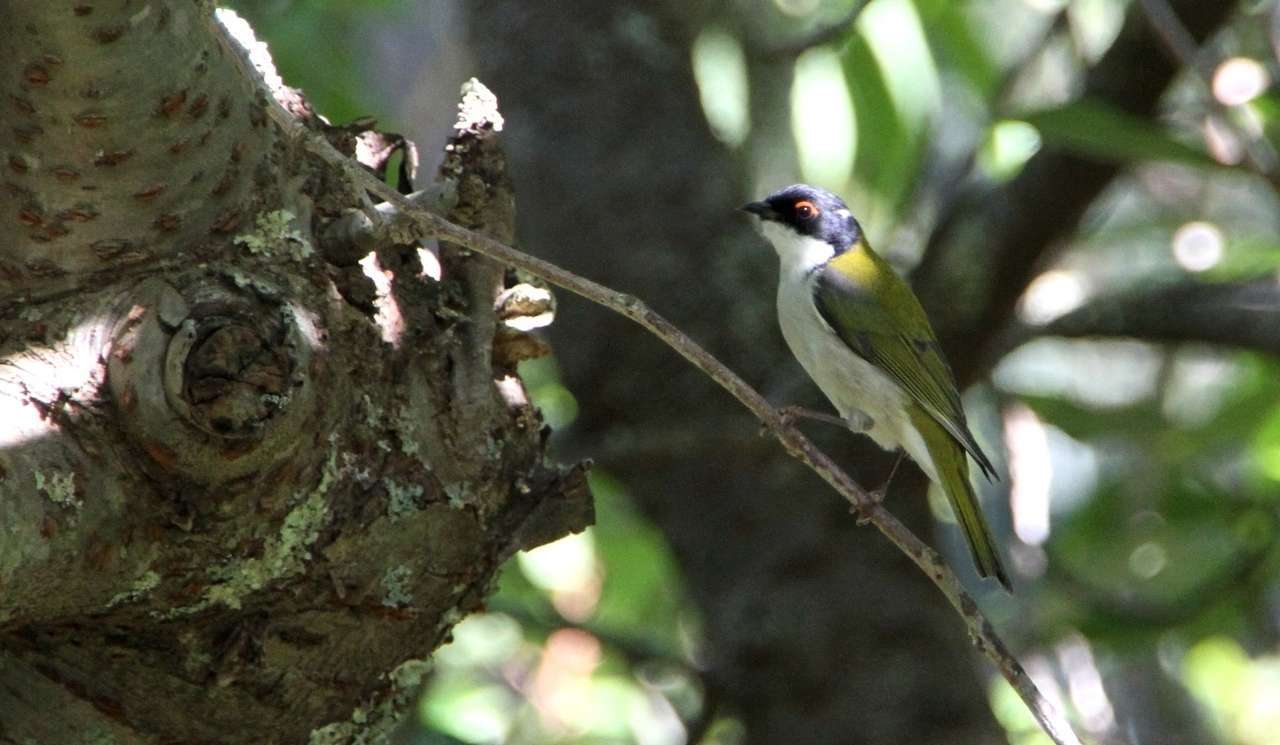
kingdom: Animalia
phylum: Chordata
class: Aves
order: Passeriformes
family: Meliphagidae
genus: Melithreptus
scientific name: Melithreptus lunatus
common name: White-naped honeyeater
